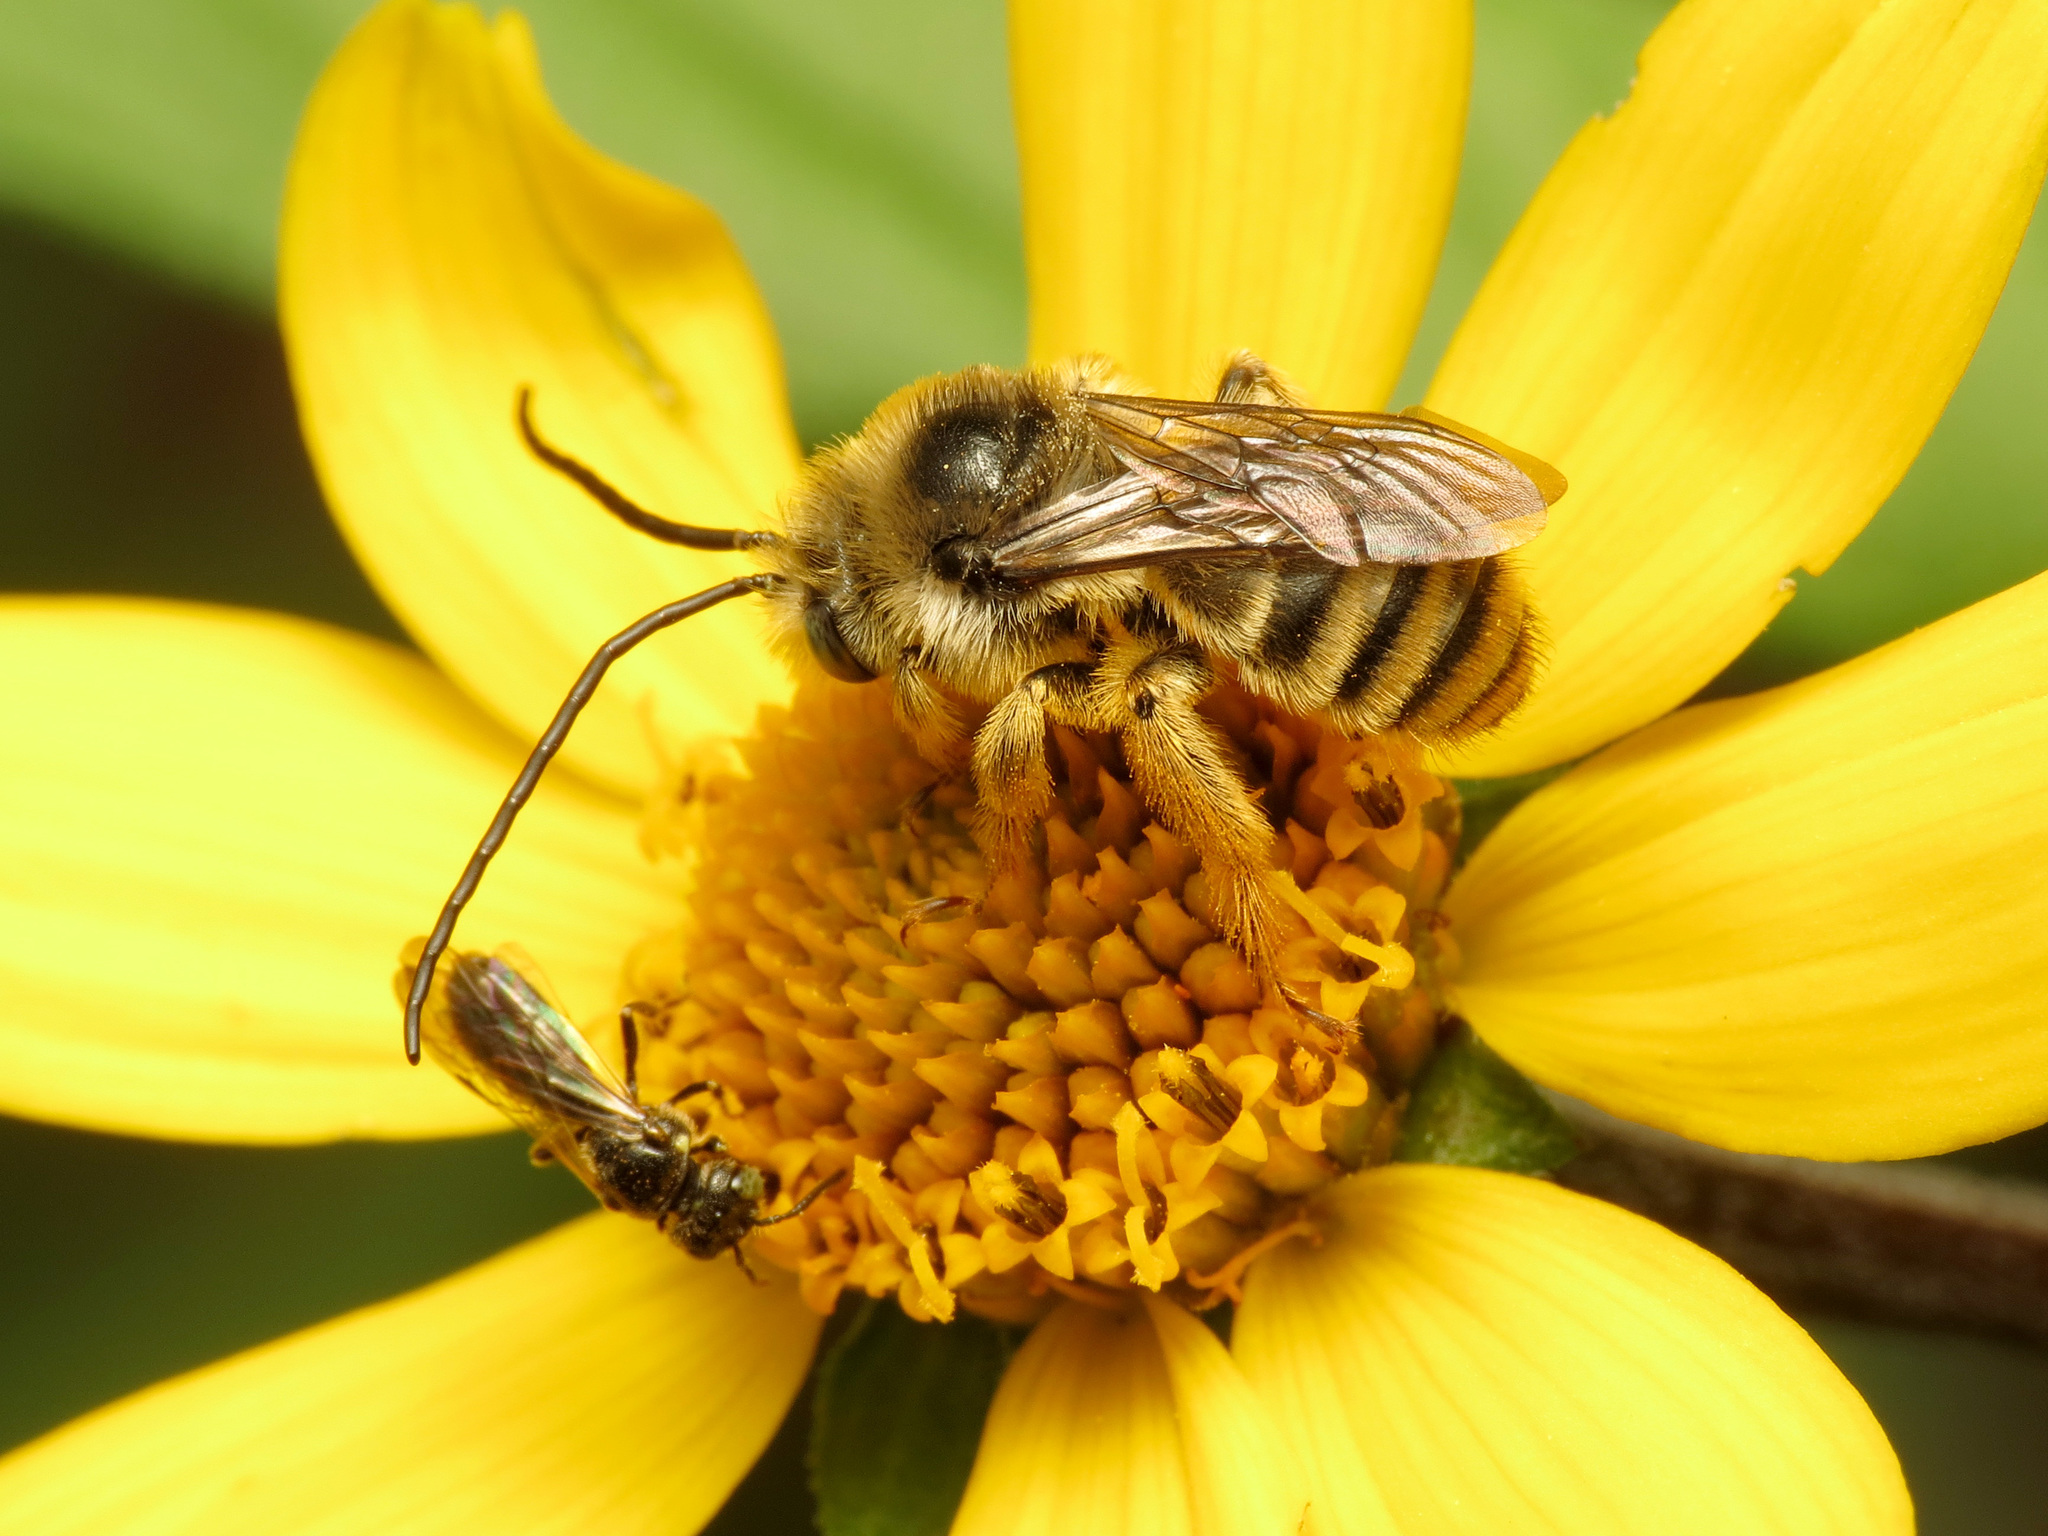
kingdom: Animalia
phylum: Arthropoda
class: Insecta
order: Hymenoptera
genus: Eumelissodes
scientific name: Eumelissodes
